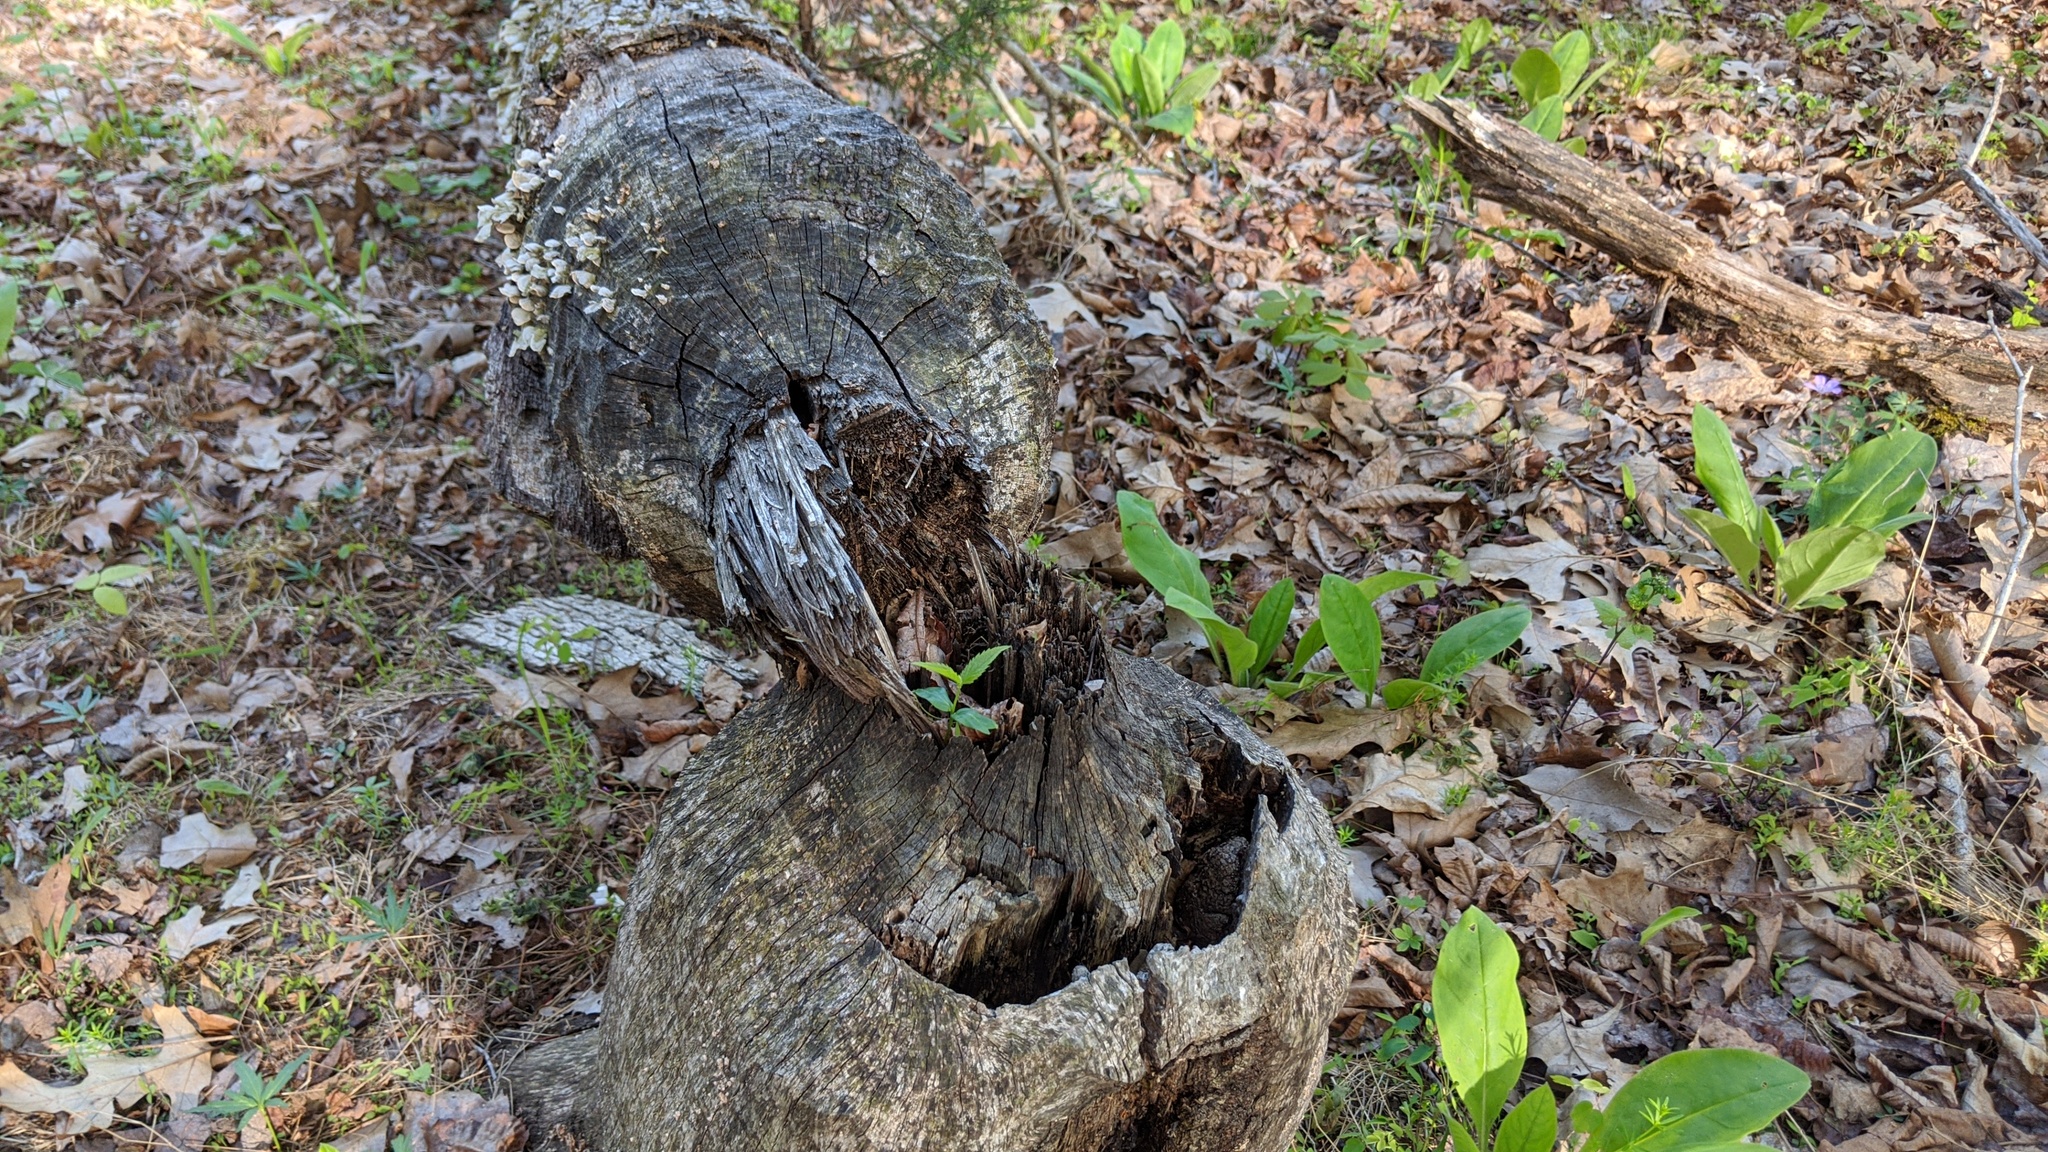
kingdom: Animalia
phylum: Chordata
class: Mammalia
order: Rodentia
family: Castoridae
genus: Castor
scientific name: Castor canadensis
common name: American beaver
